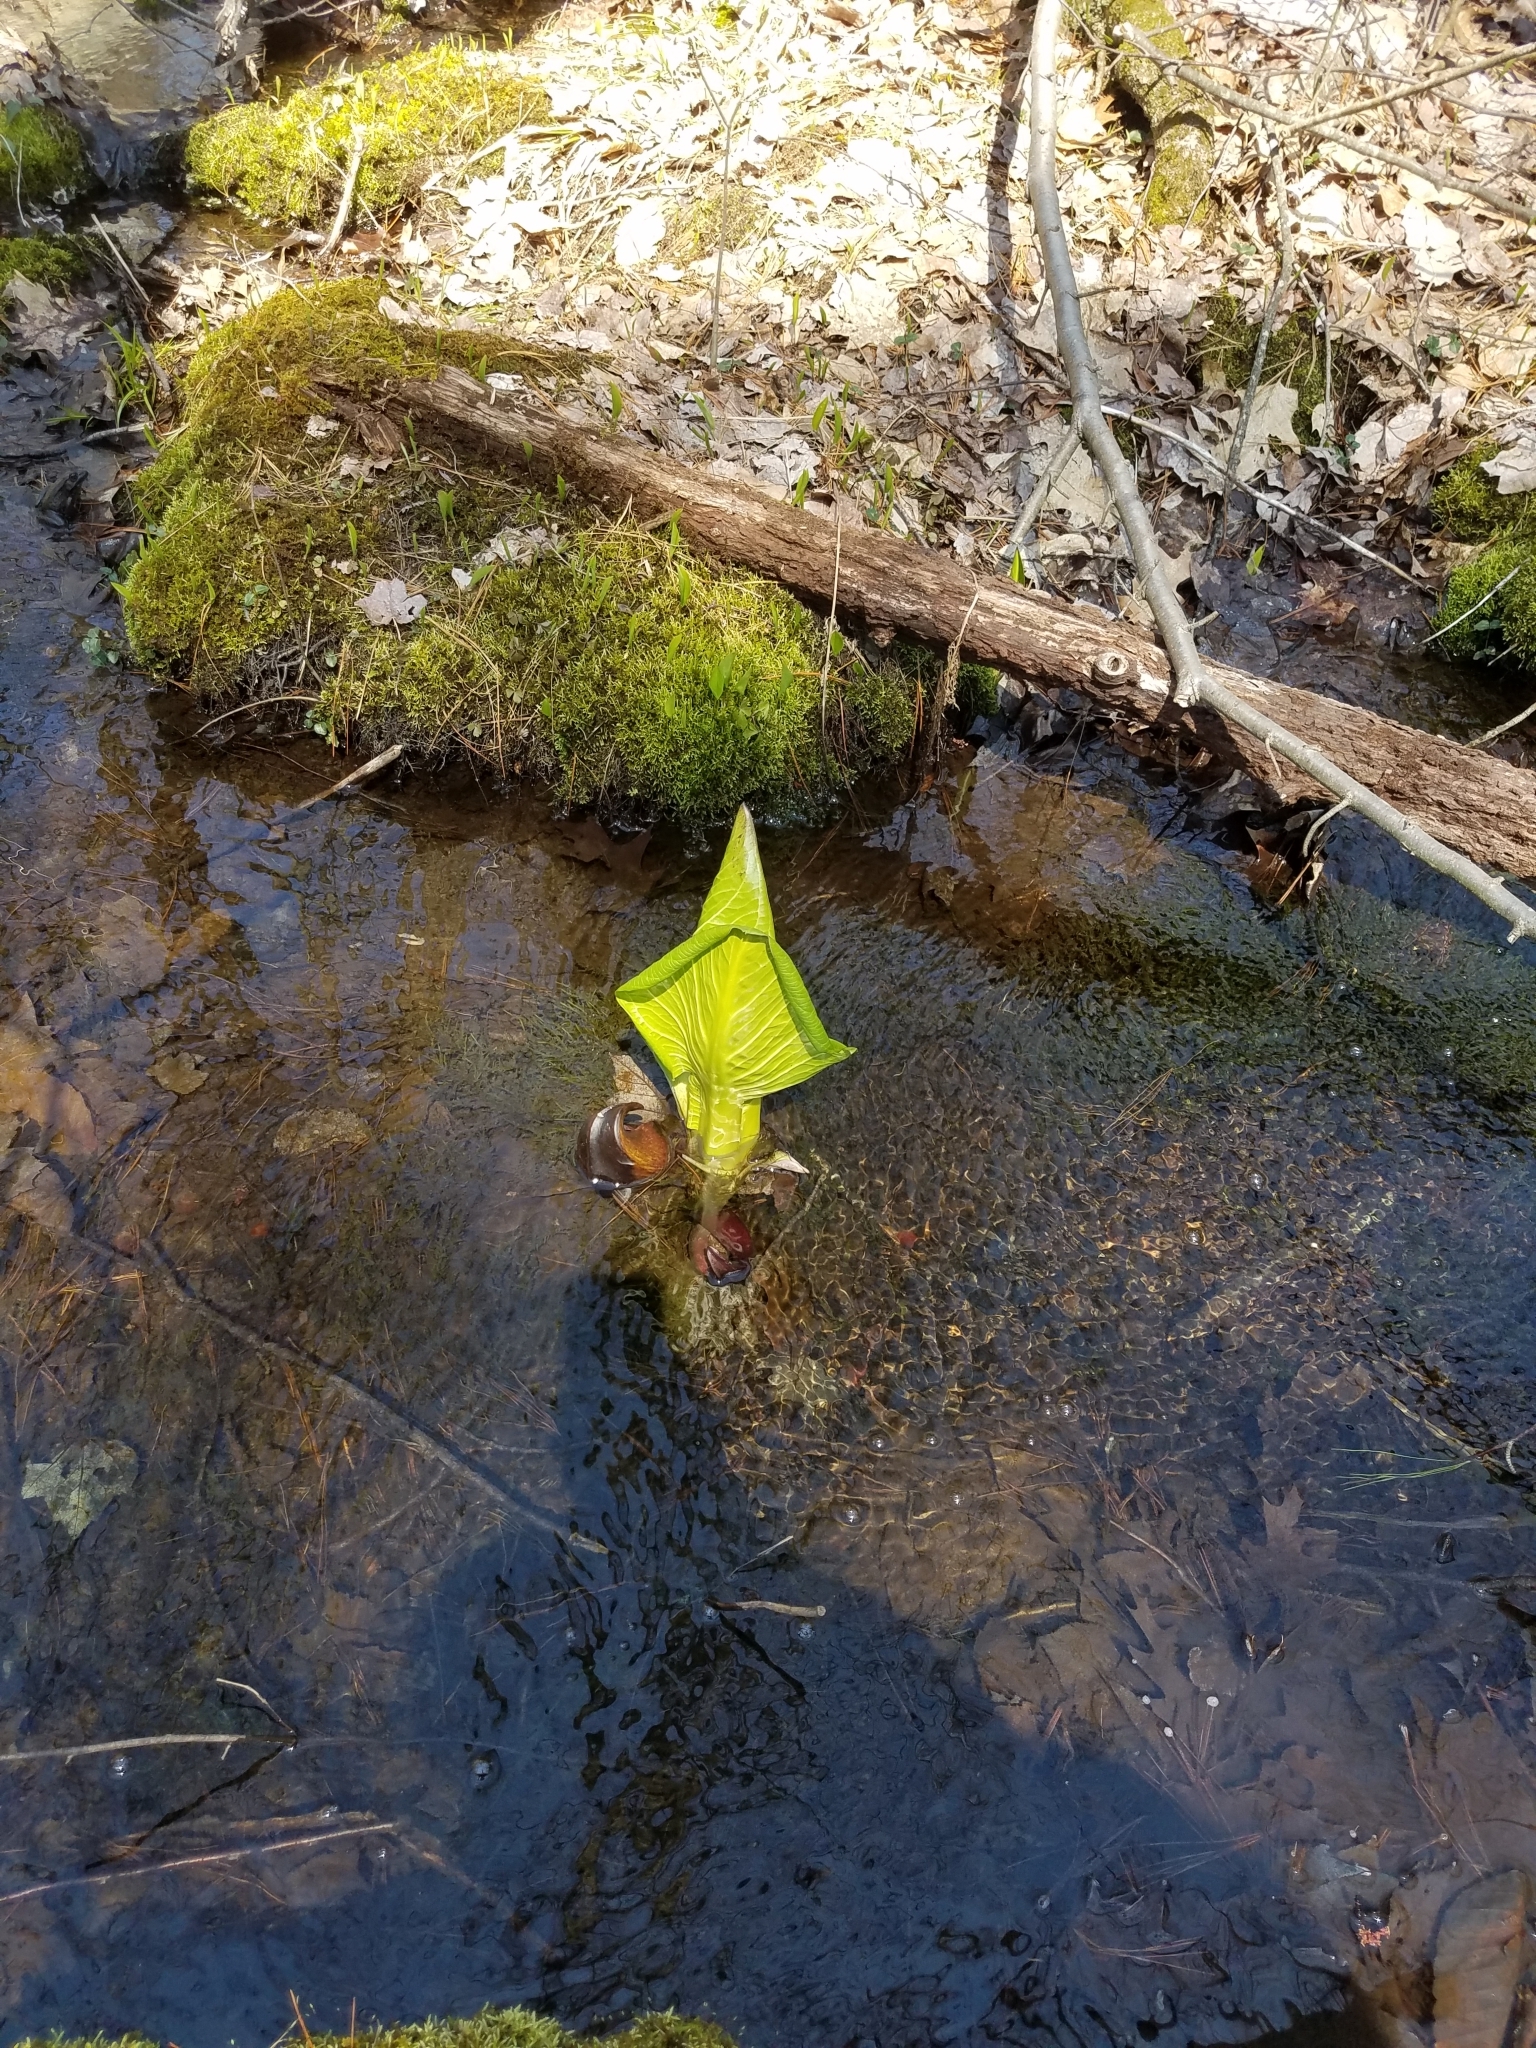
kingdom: Plantae
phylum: Tracheophyta
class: Liliopsida
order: Alismatales
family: Araceae
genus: Symplocarpus
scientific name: Symplocarpus foetidus
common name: Eastern skunk cabbage
